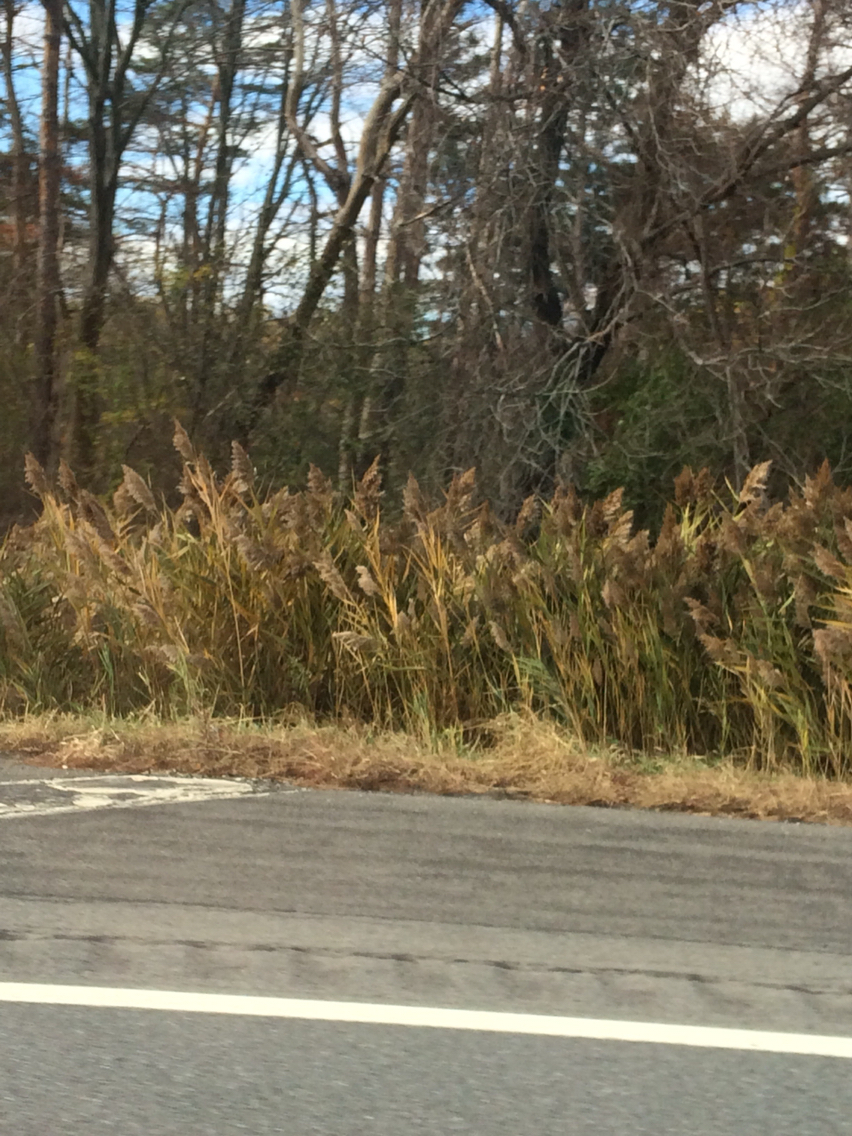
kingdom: Plantae
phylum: Tracheophyta
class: Liliopsida
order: Poales
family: Poaceae
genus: Phragmites
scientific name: Phragmites australis
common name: Common reed
